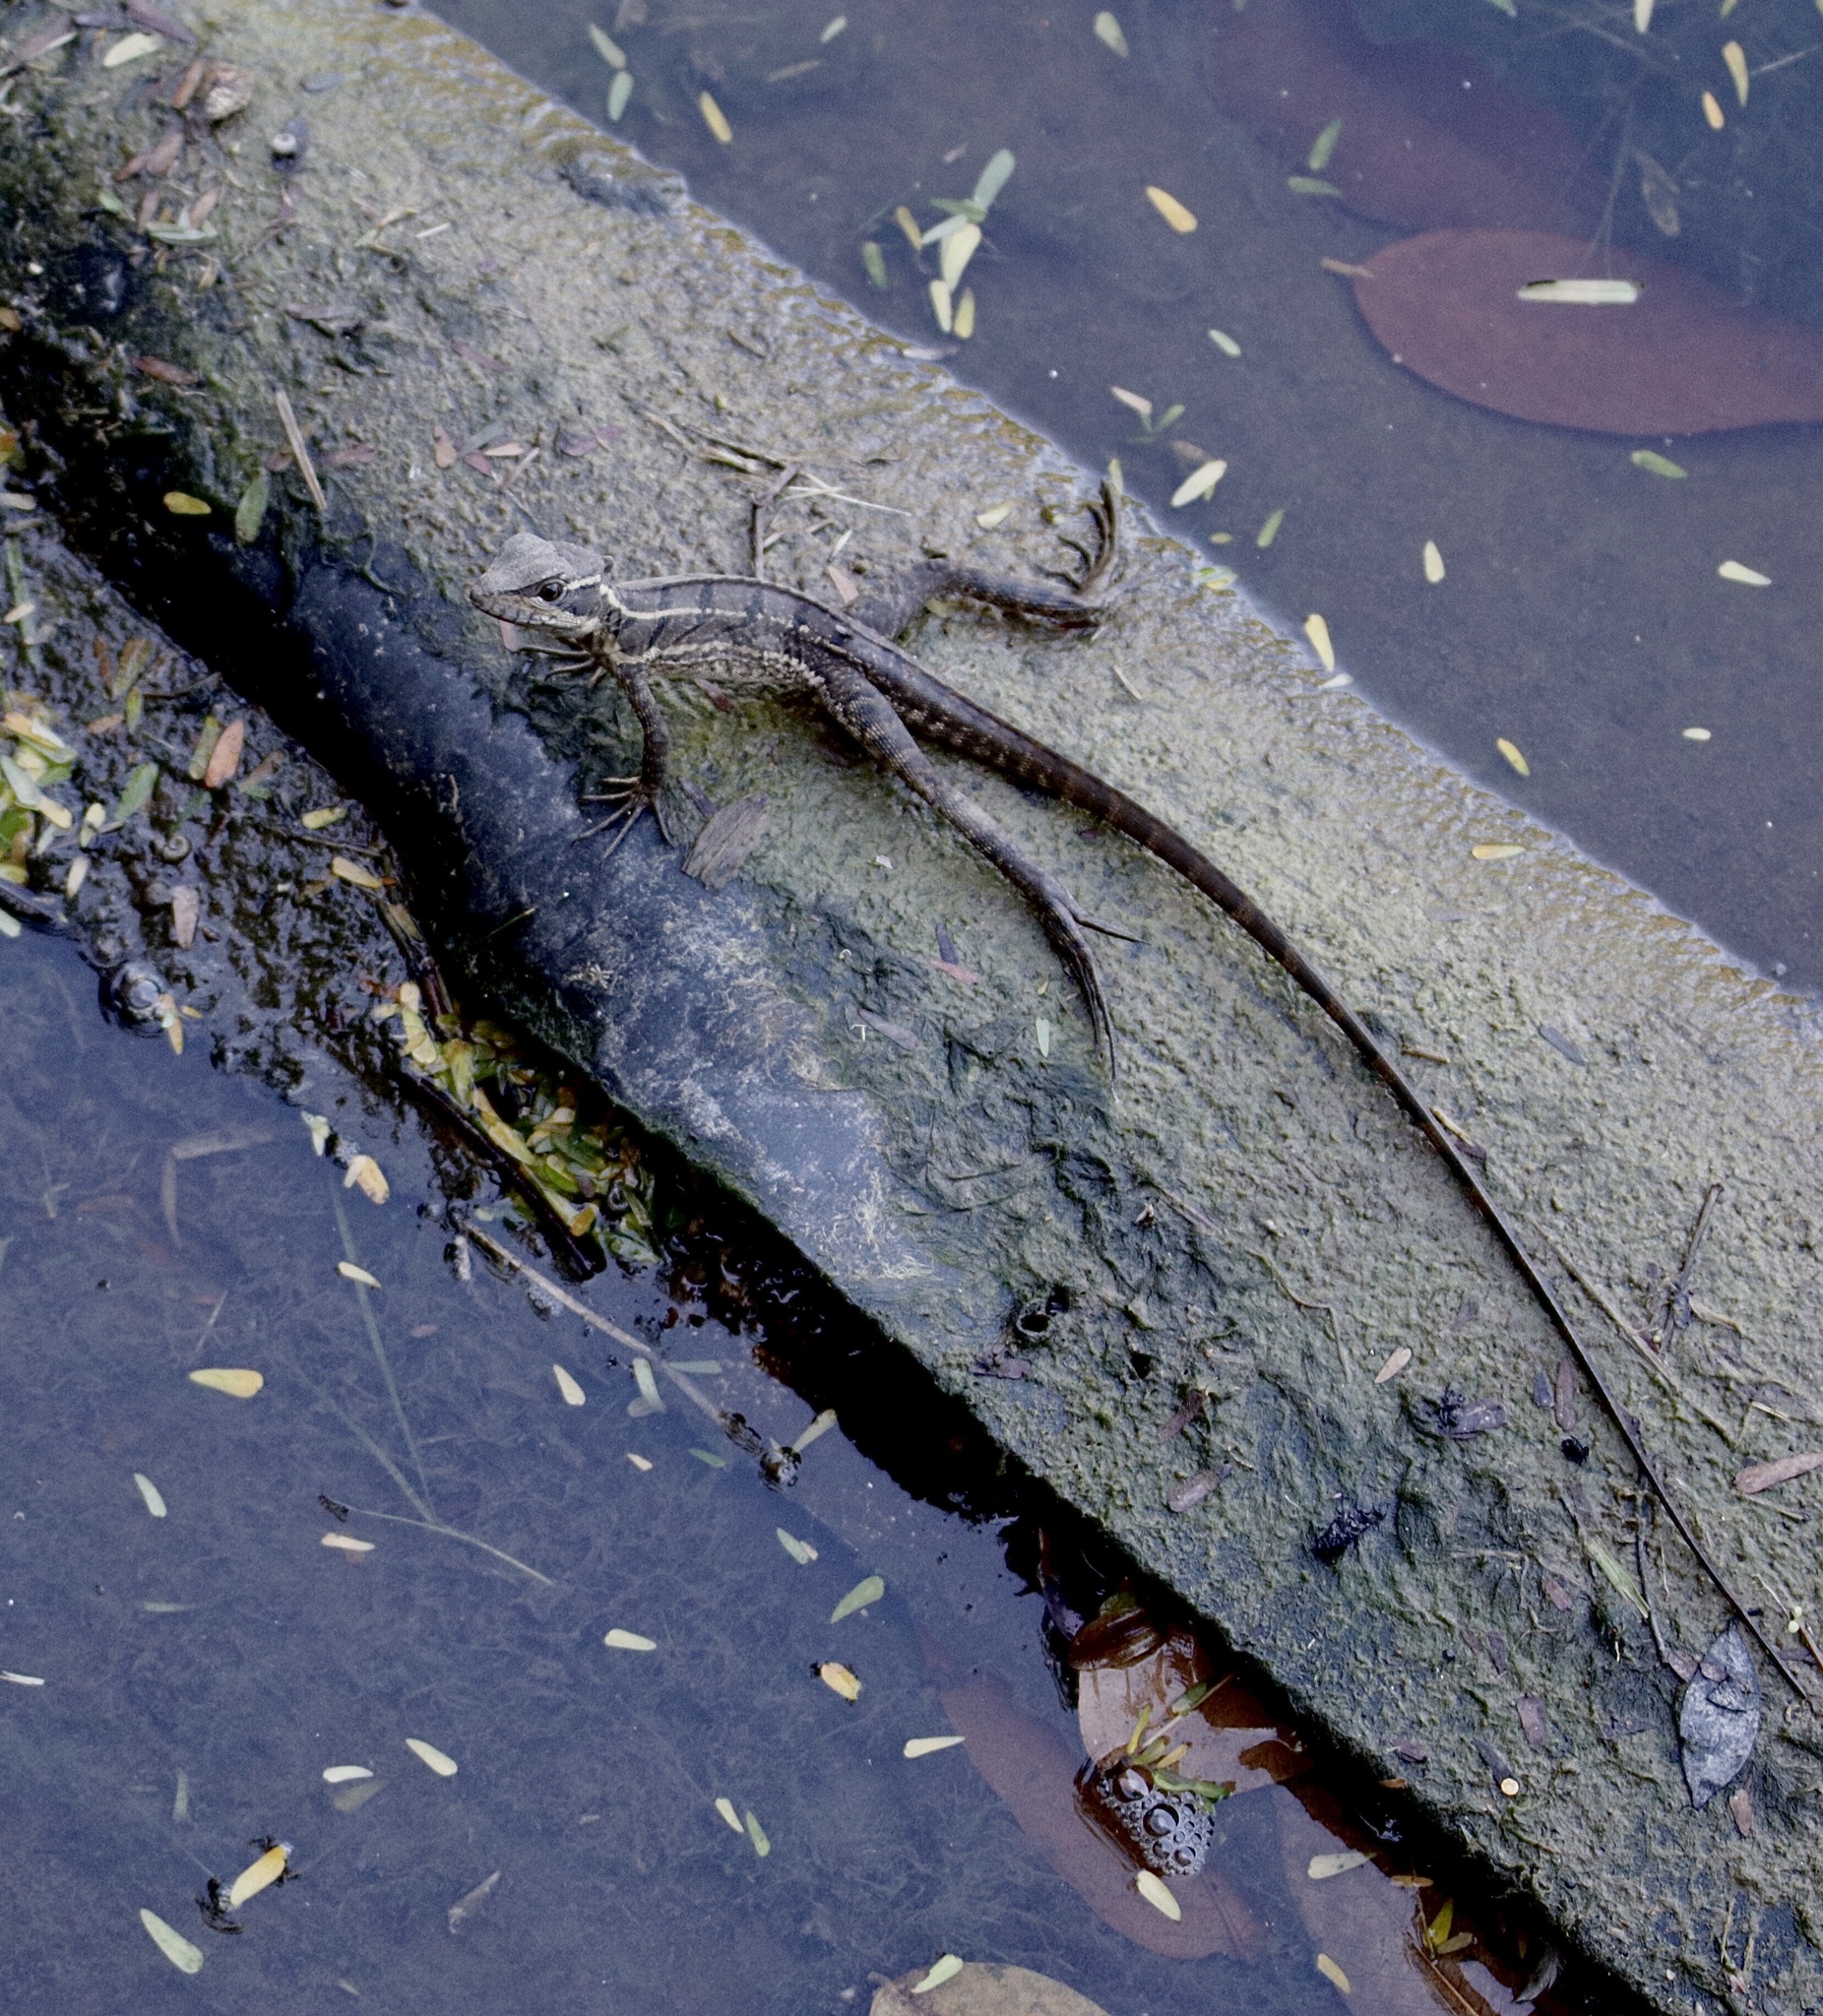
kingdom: Animalia
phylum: Chordata
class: Squamata
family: Corytophanidae
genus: Basiliscus
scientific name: Basiliscus basiliscus
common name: Common basilisk
